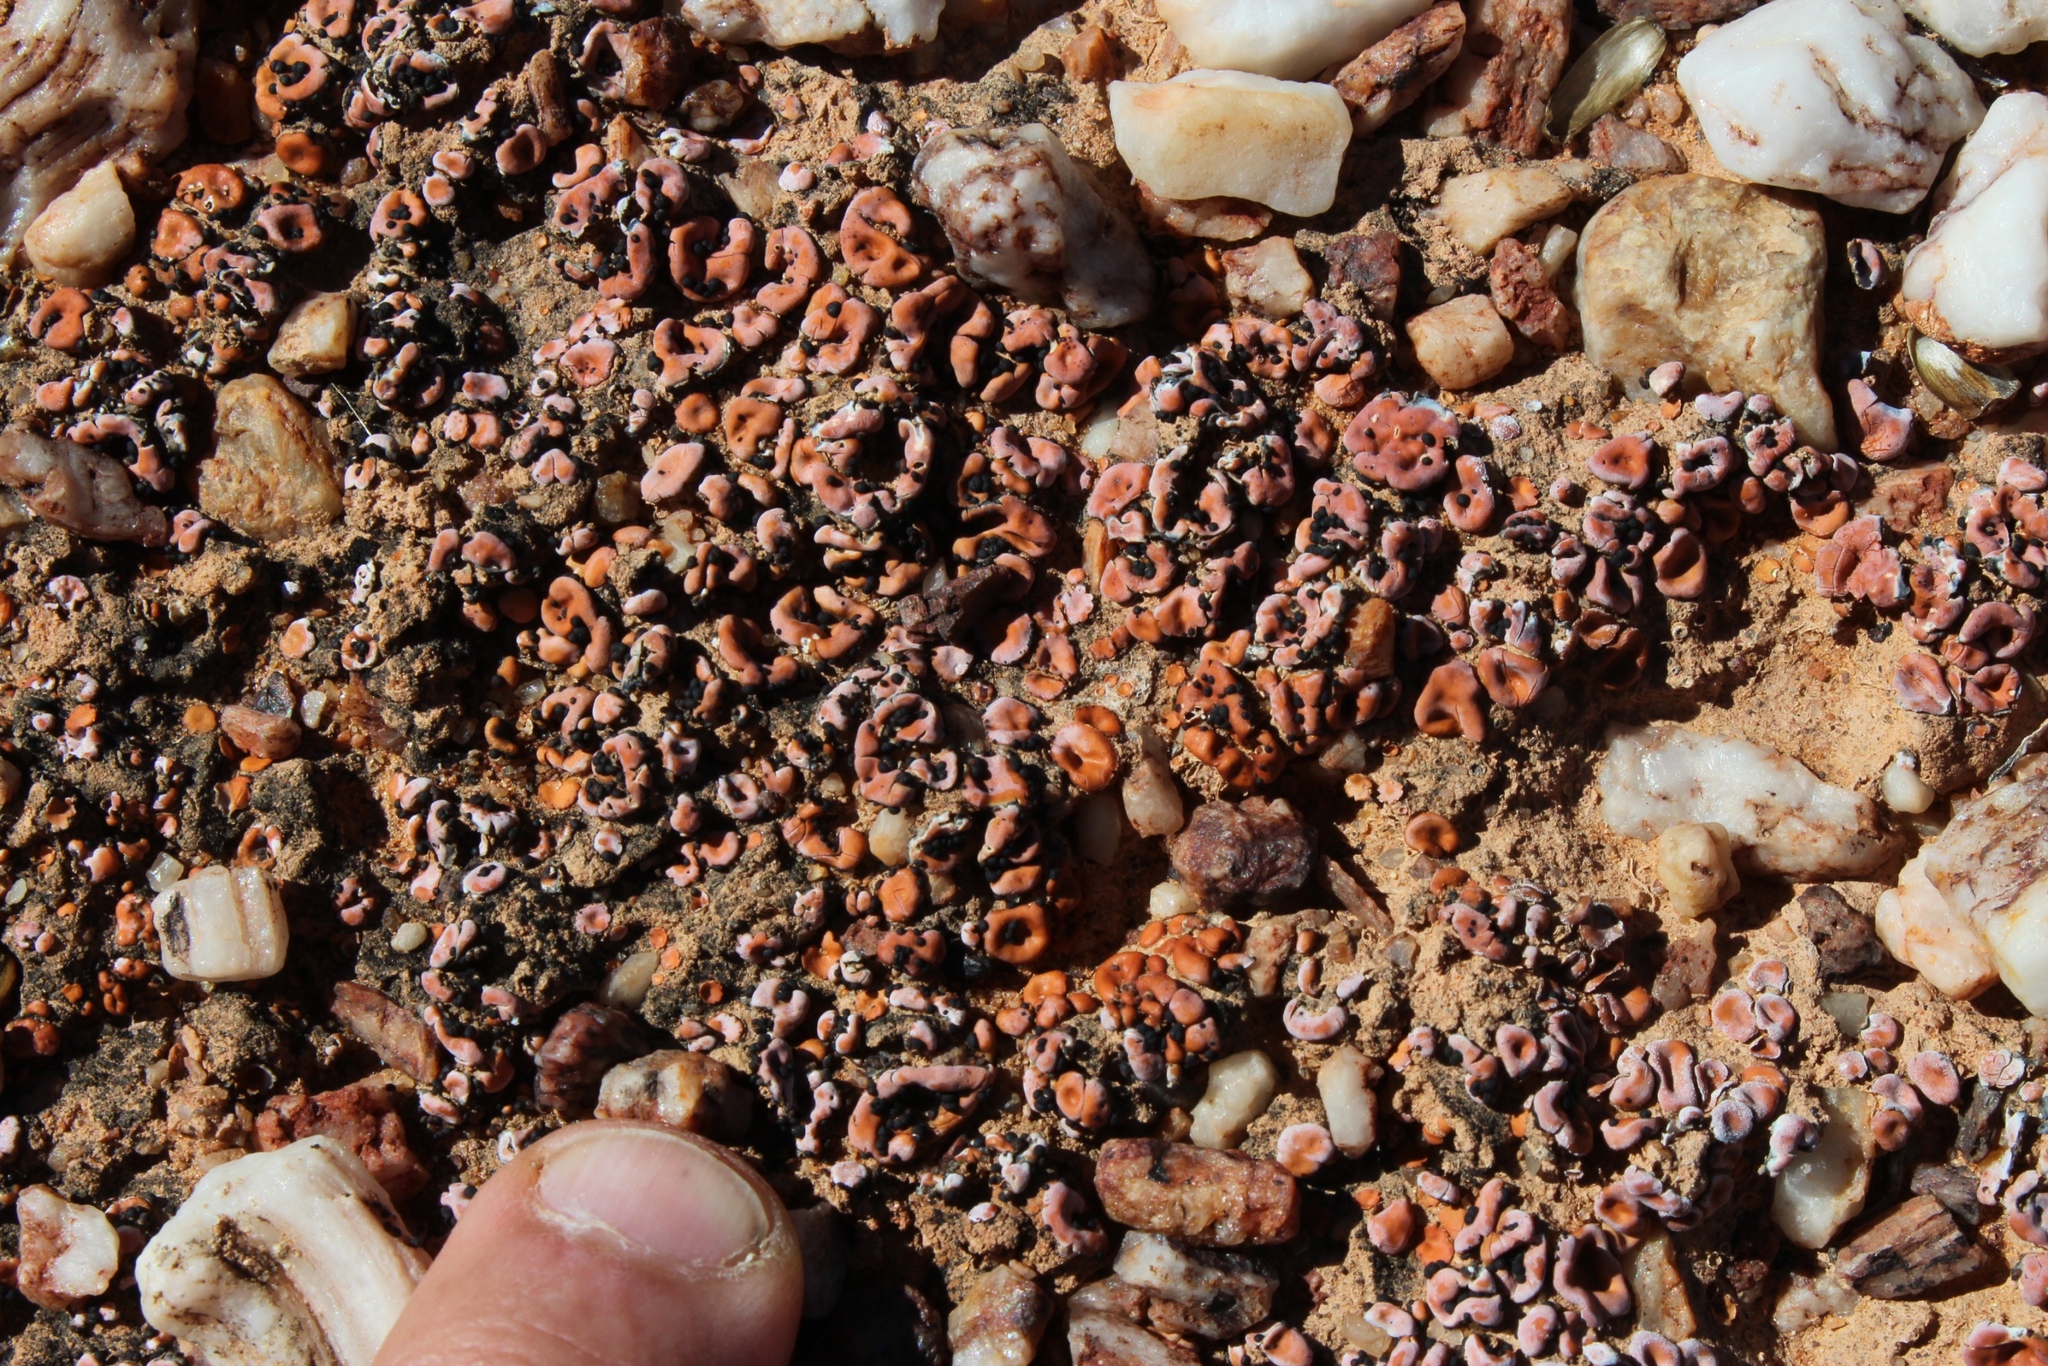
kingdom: Fungi
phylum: Ascomycota
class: Lecanoromycetes
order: Lecanorales
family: Psoraceae
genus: Psora
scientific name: Psora crenata
